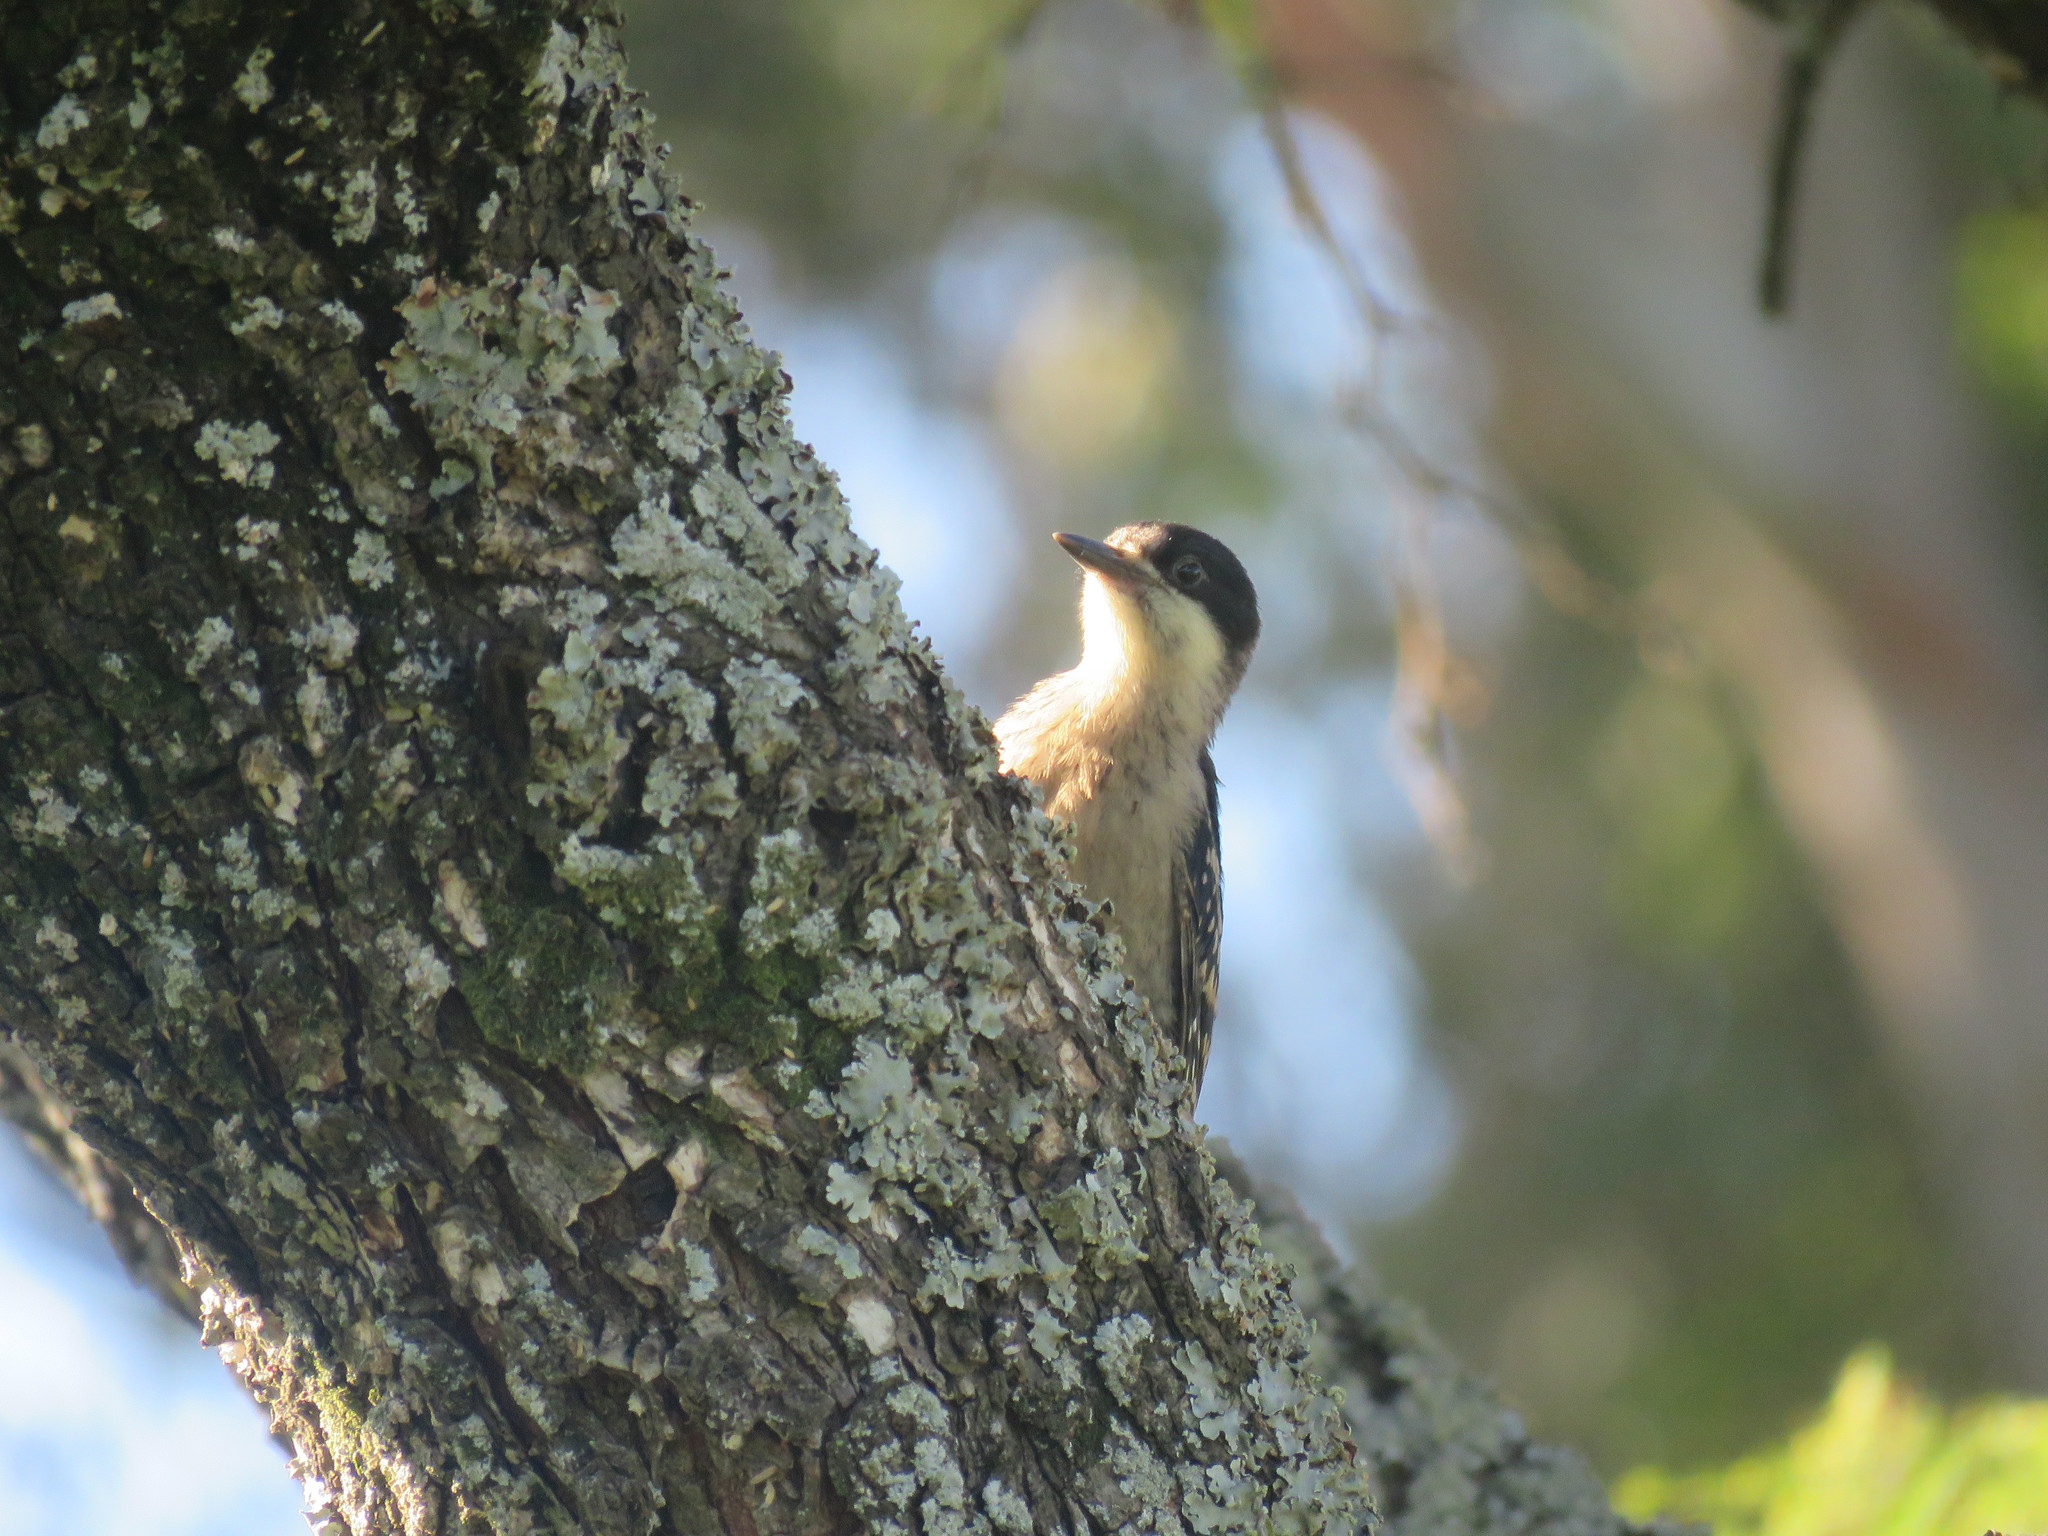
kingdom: Animalia
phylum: Chordata
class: Aves
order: Piciformes
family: Picidae
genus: Melanerpes
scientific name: Melanerpes cactorum
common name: White-fronted woodpecker
